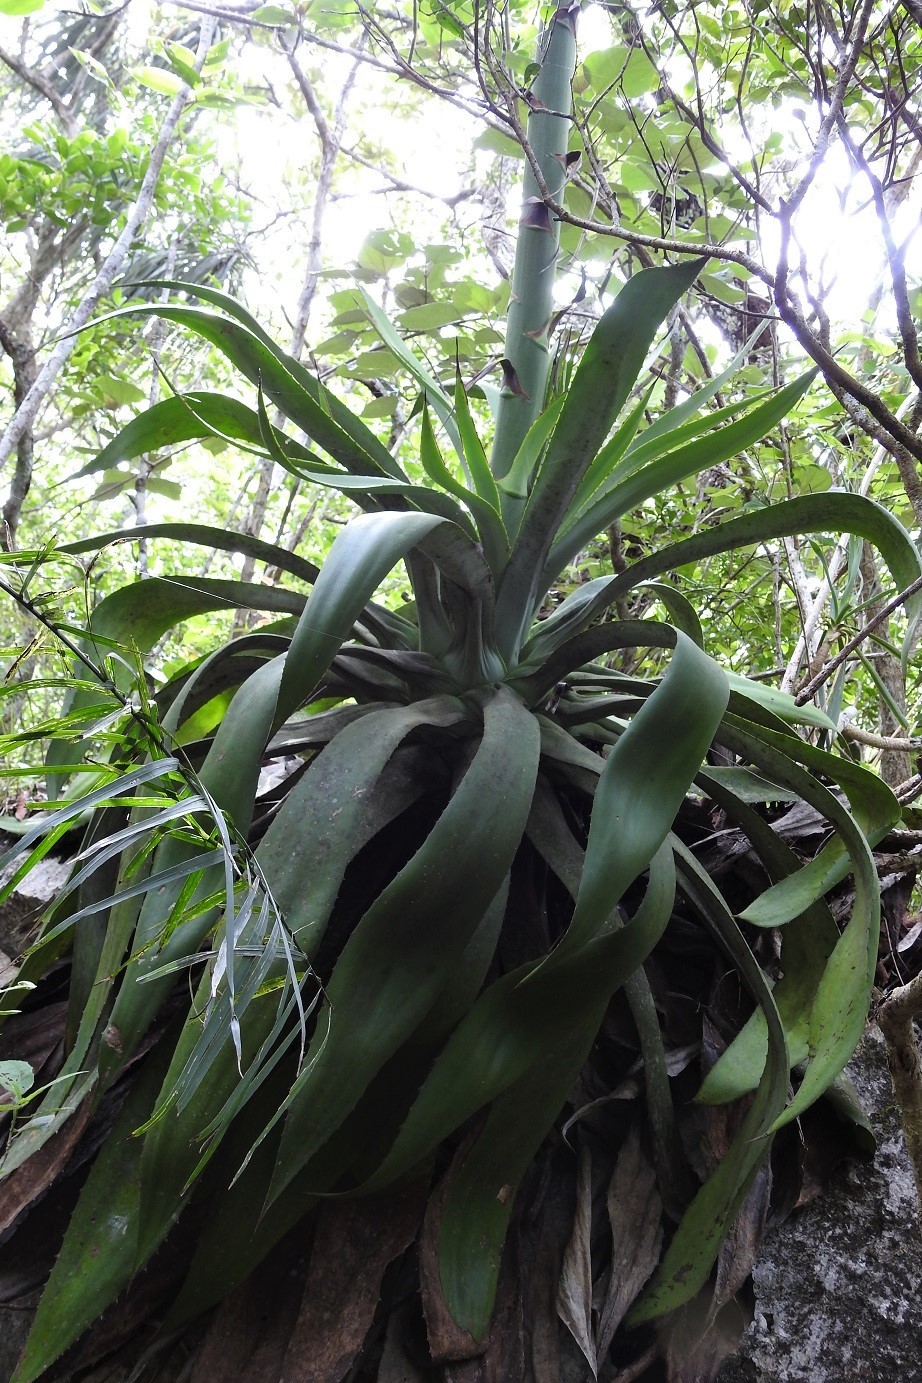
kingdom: Plantae
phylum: Tracheophyta
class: Liliopsida
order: Asparagales
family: Asparagaceae
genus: Agave
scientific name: Agave kewensis
